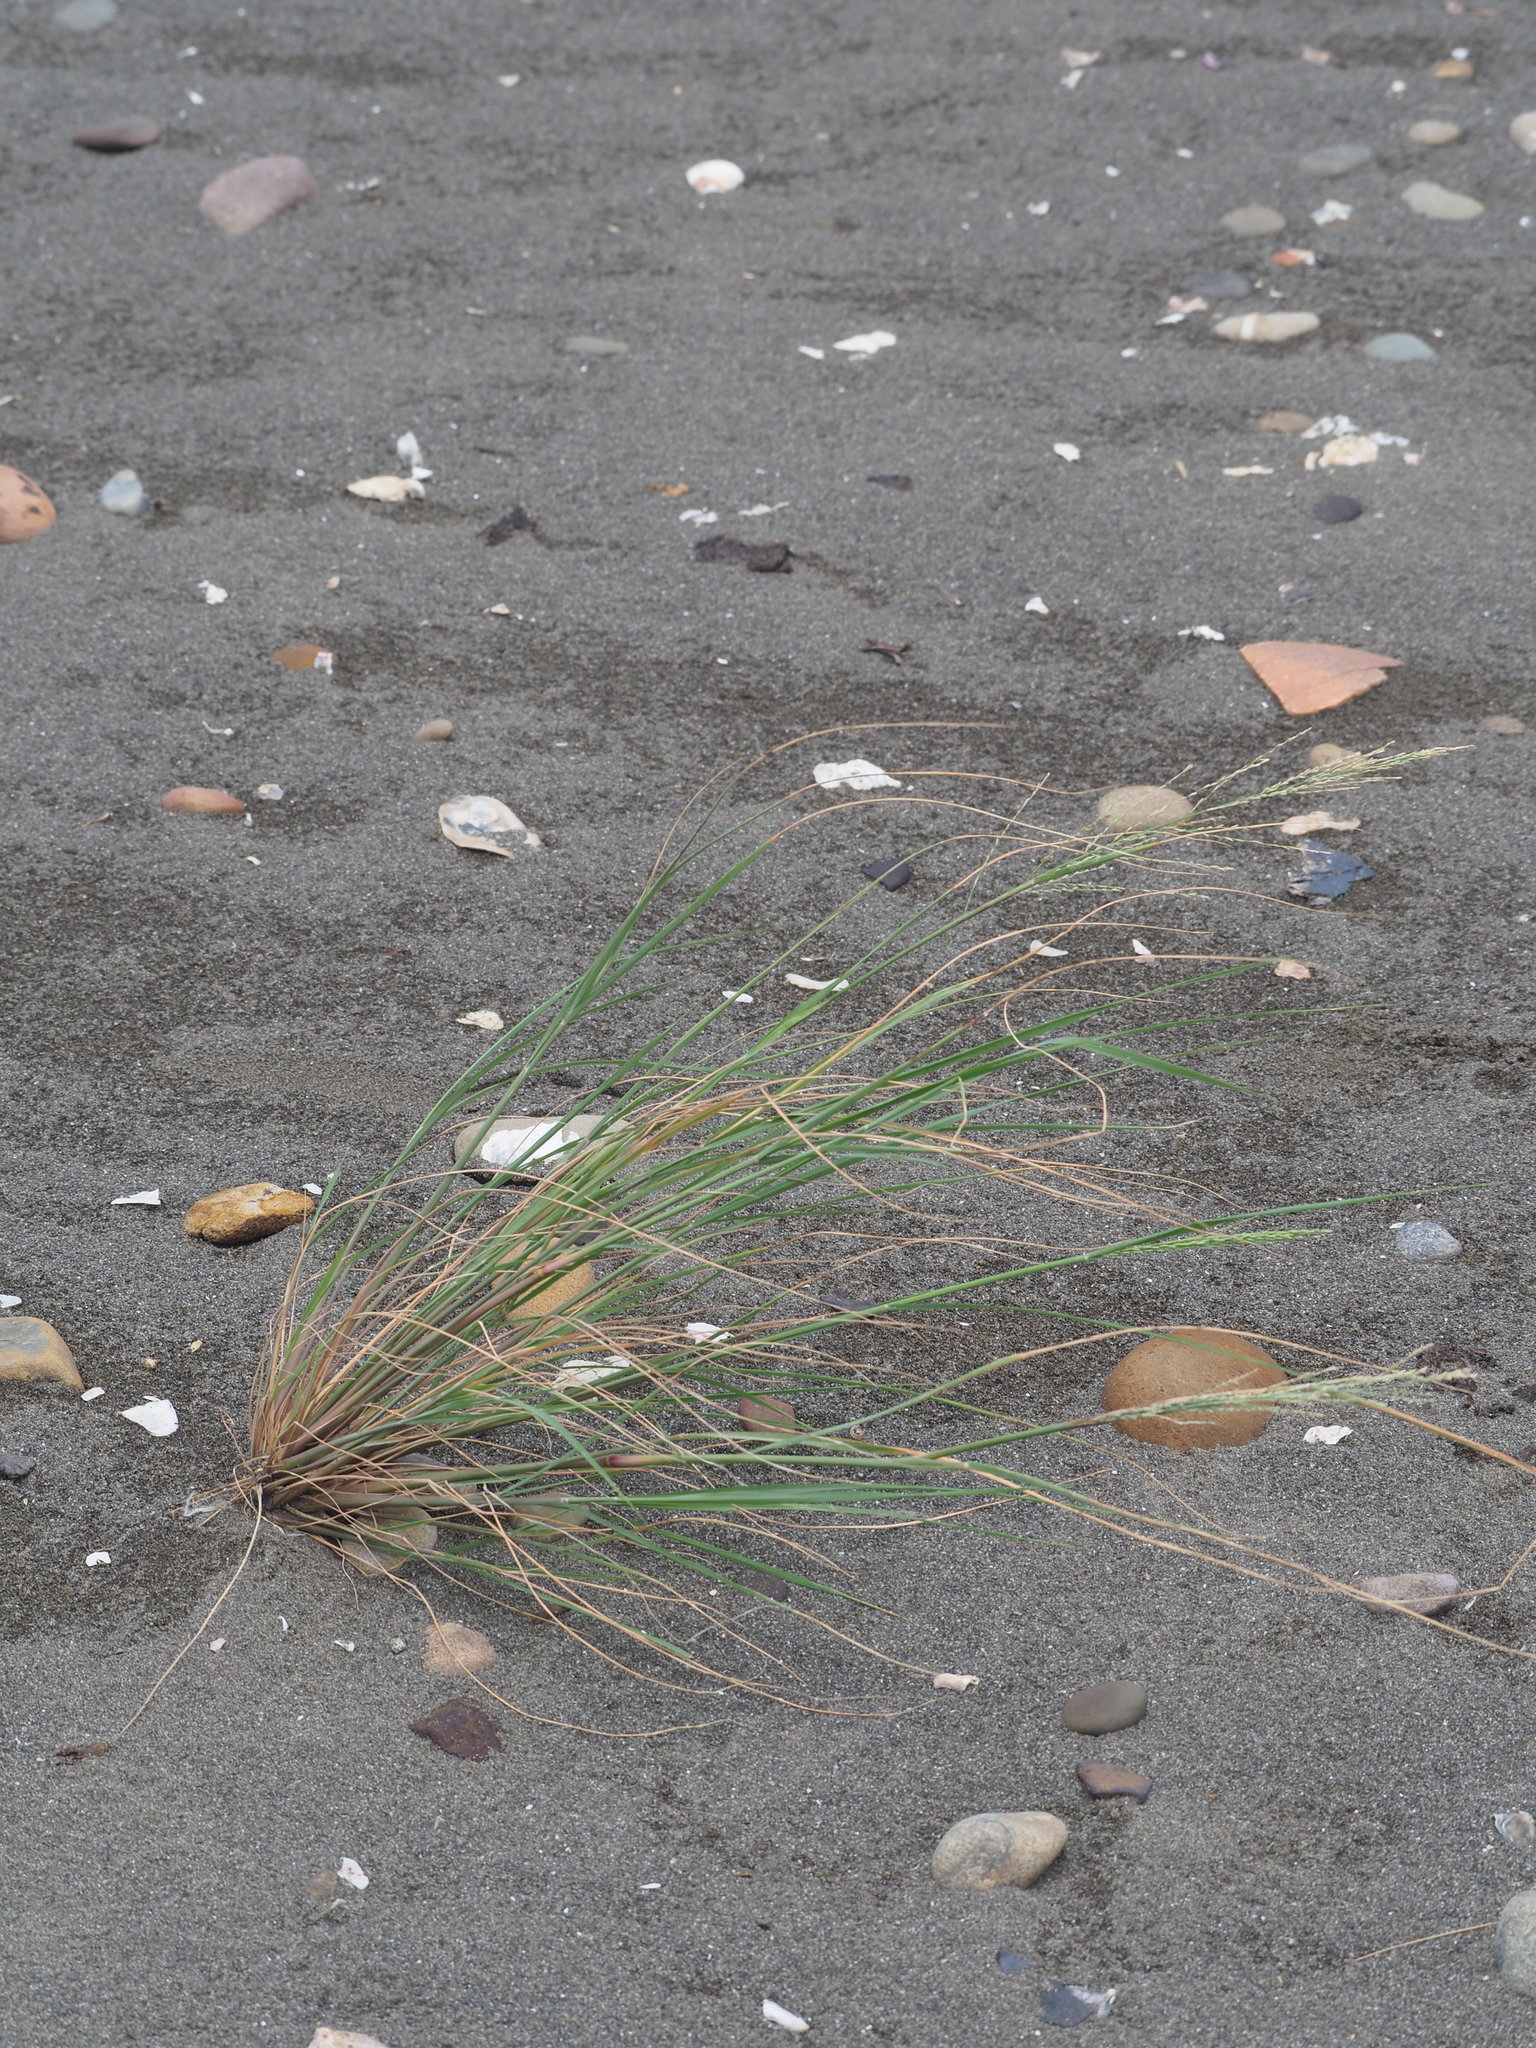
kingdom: Plantae
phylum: Tracheophyta
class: Liliopsida
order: Poales
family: Poaceae
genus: Diplachne
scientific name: Diplachne fusca
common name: Brown beetle grass
